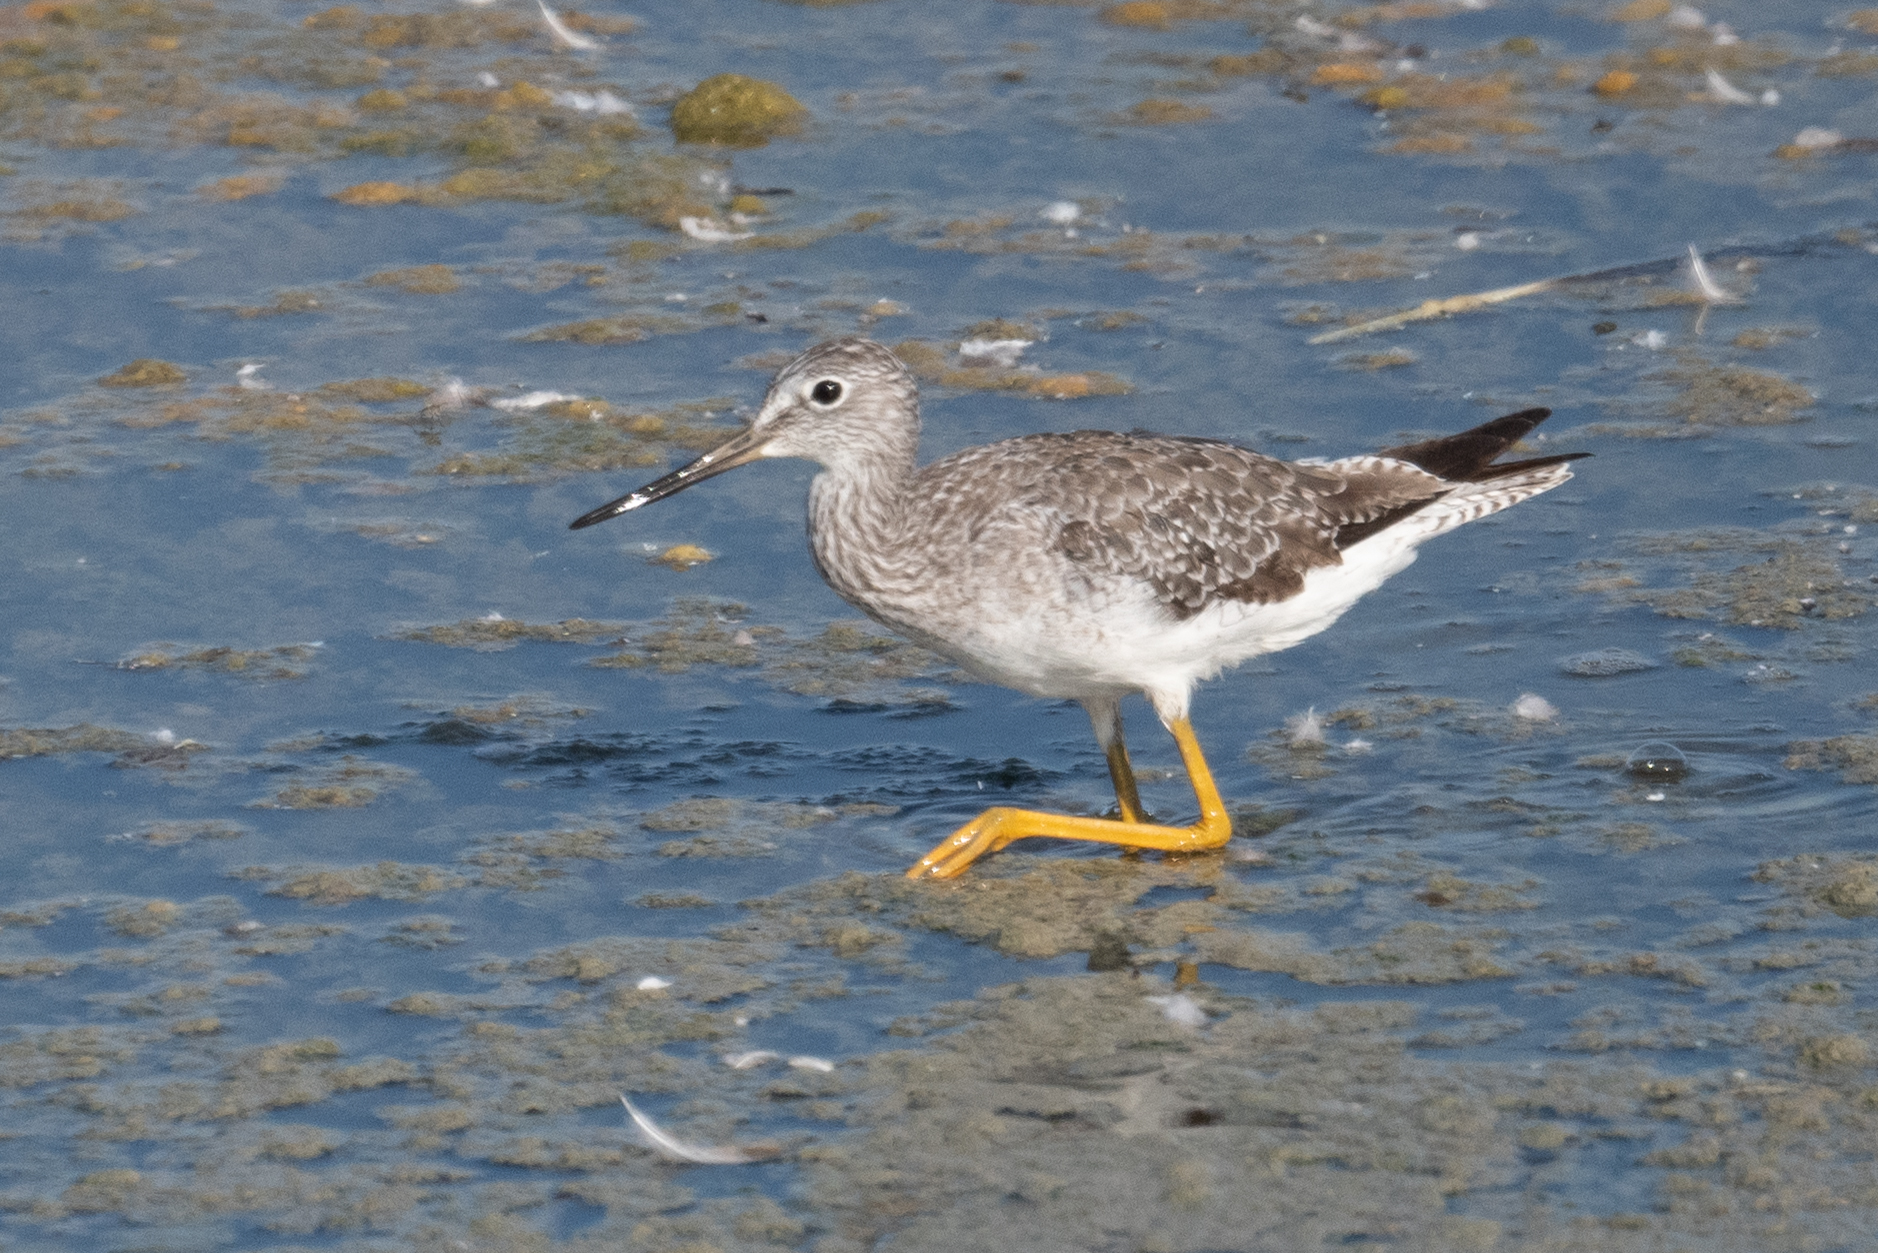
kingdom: Animalia
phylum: Chordata
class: Aves
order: Charadriiformes
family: Scolopacidae
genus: Tringa
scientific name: Tringa melanoleuca
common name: Greater yellowlegs
